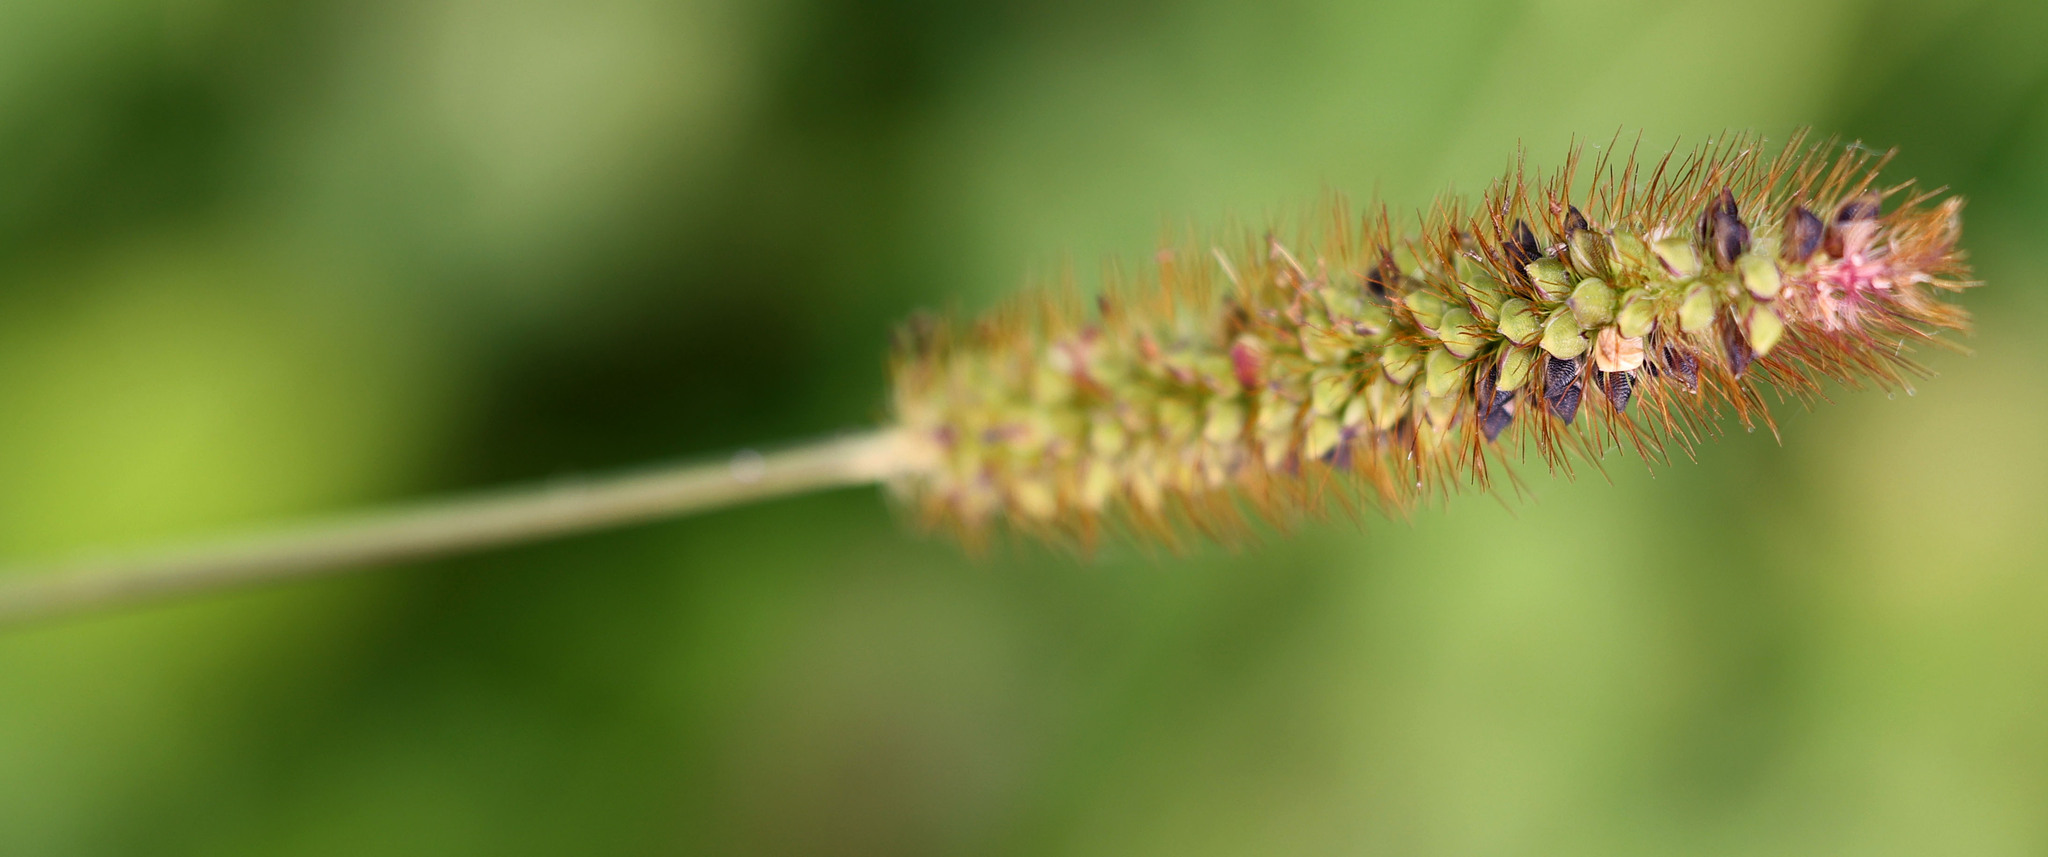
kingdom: Plantae
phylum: Tracheophyta
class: Liliopsida
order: Poales
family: Poaceae
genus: Setaria
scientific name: Setaria pumila
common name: Yellow bristle-grass
